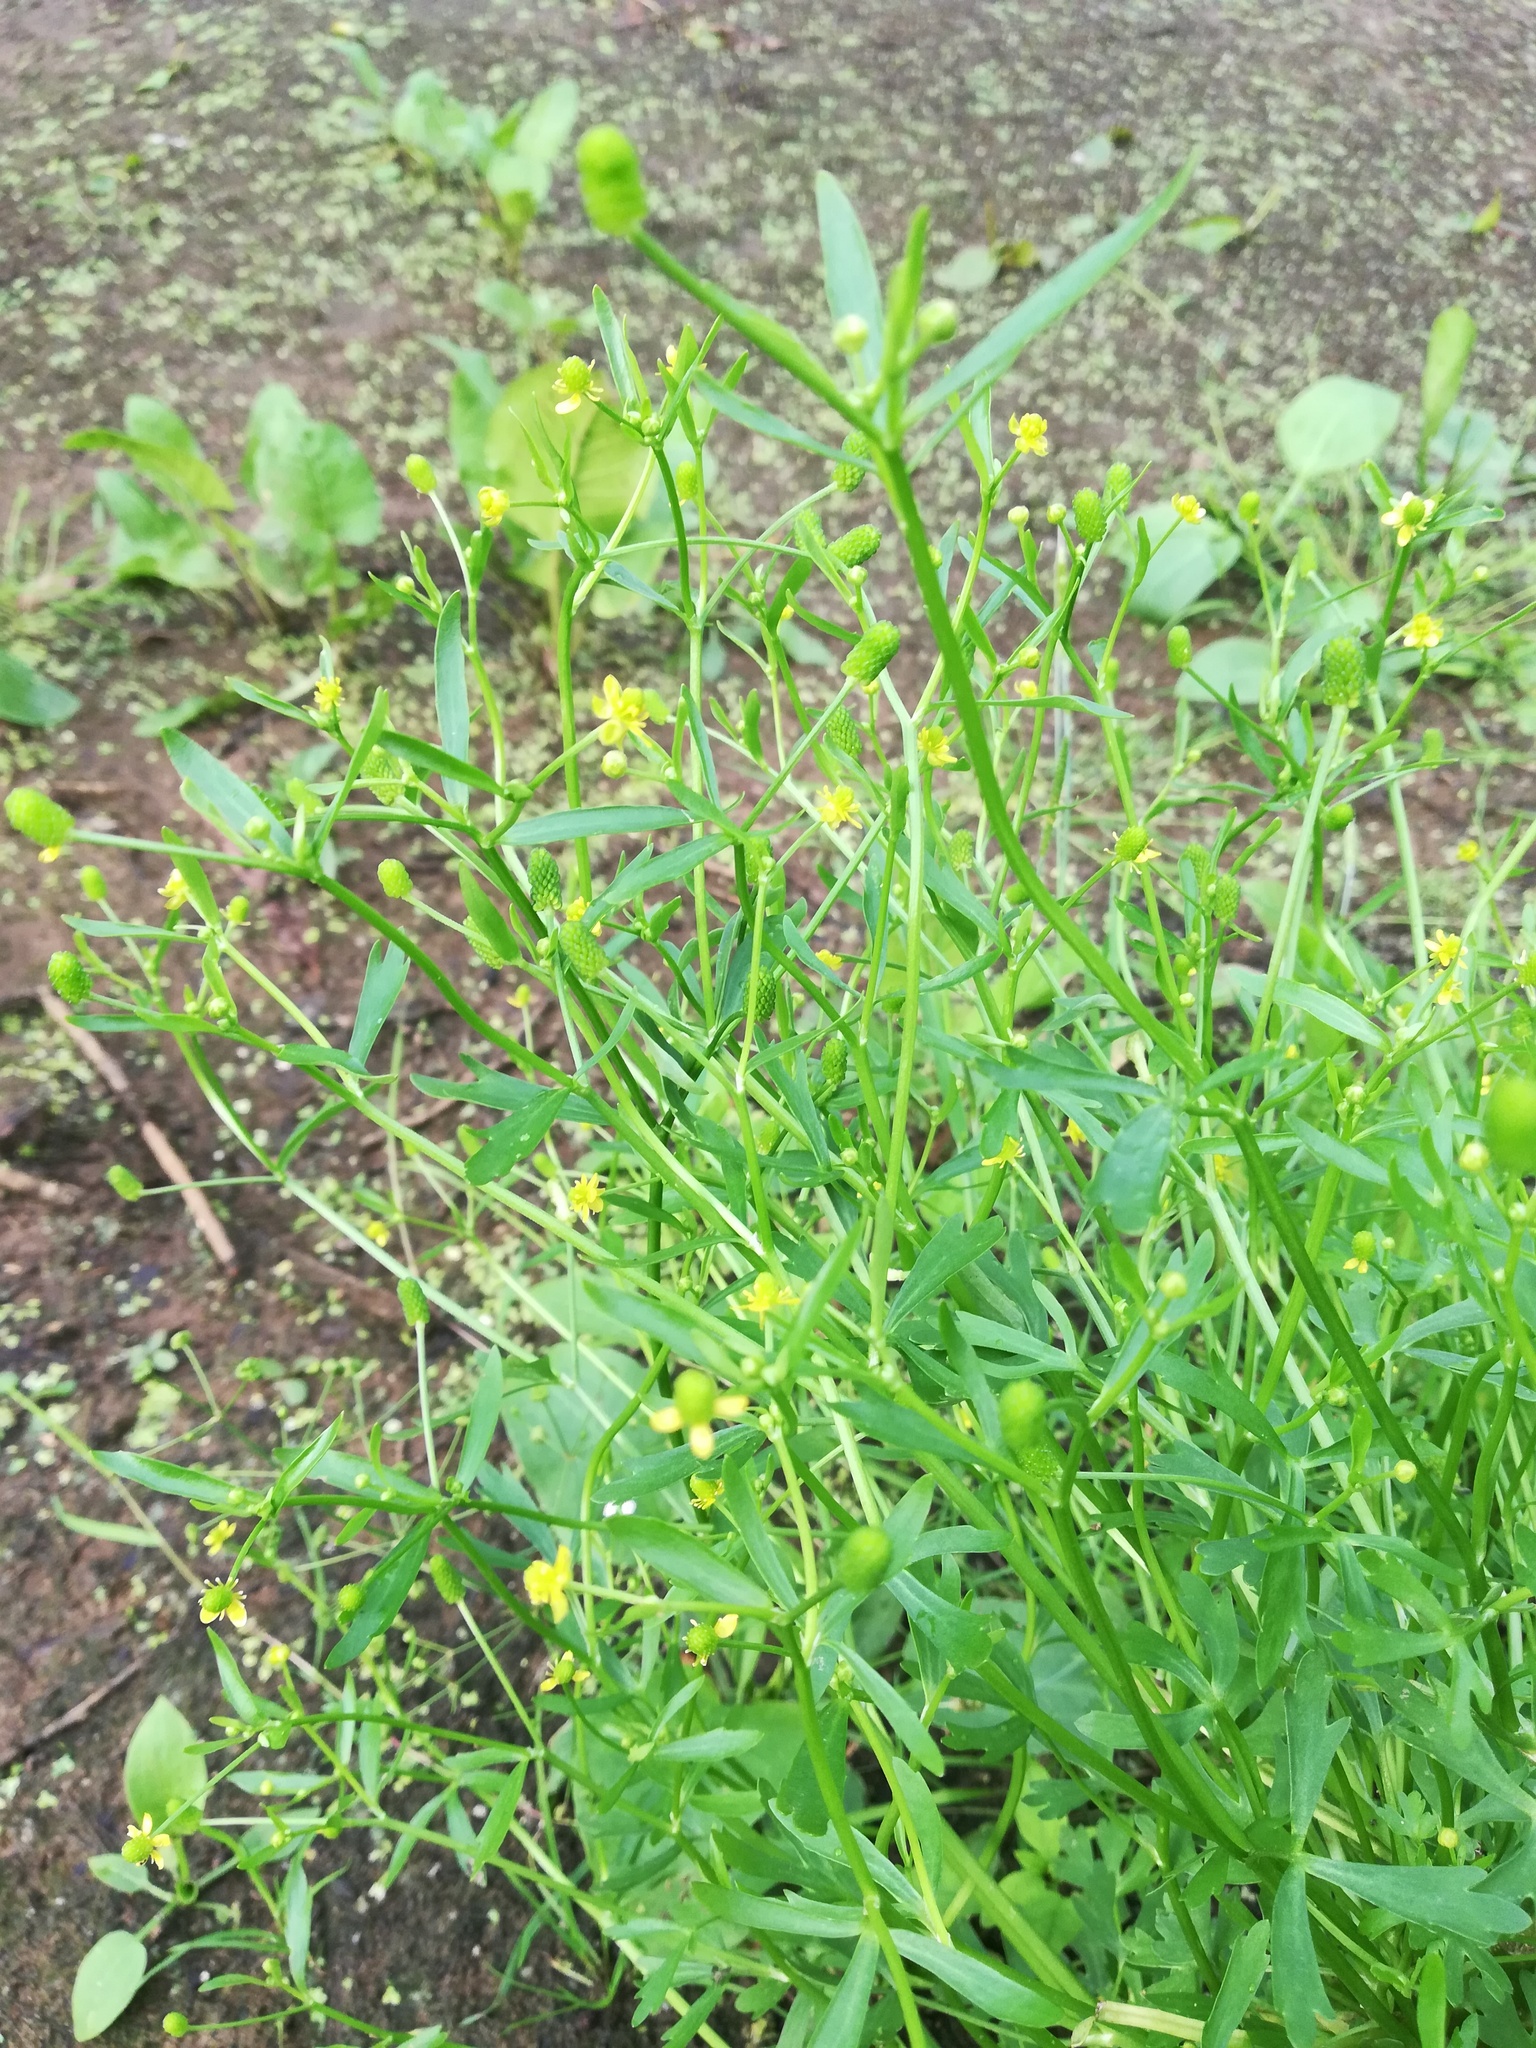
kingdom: Plantae
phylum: Tracheophyta
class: Magnoliopsida
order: Ranunculales
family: Ranunculaceae
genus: Ranunculus
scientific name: Ranunculus sceleratus
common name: Celery-leaved buttercup
